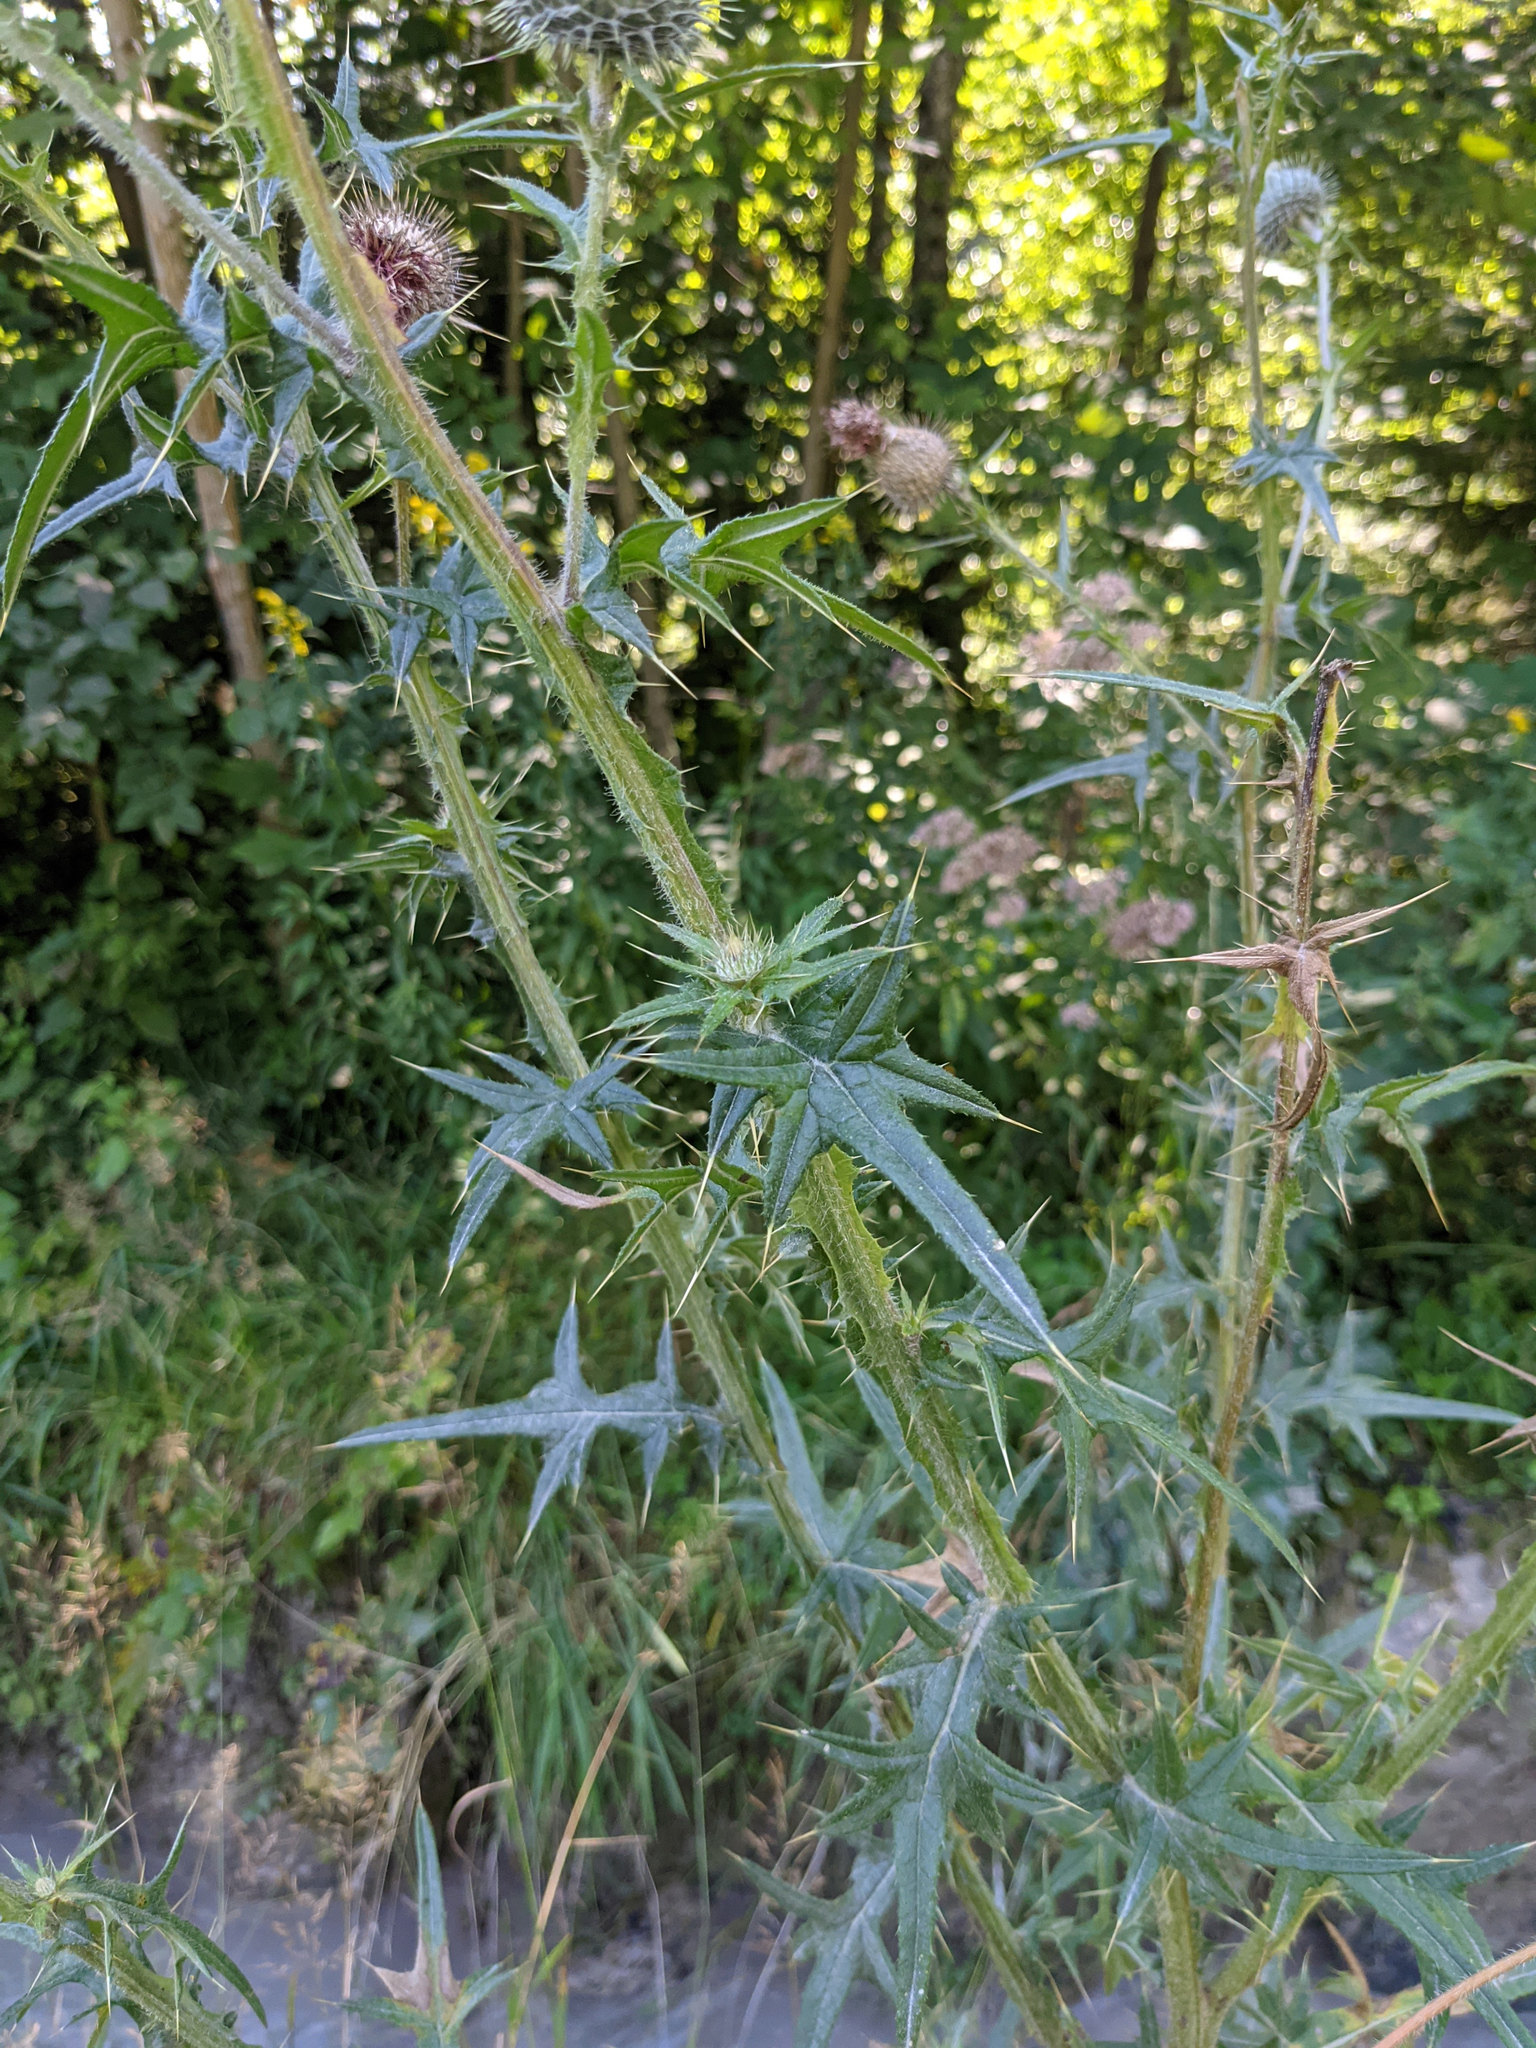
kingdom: Plantae
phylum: Tracheophyta
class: Magnoliopsida
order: Asterales
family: Asteraceae
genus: Cirsium
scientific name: Cirsium vulgare
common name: Bull thistle
